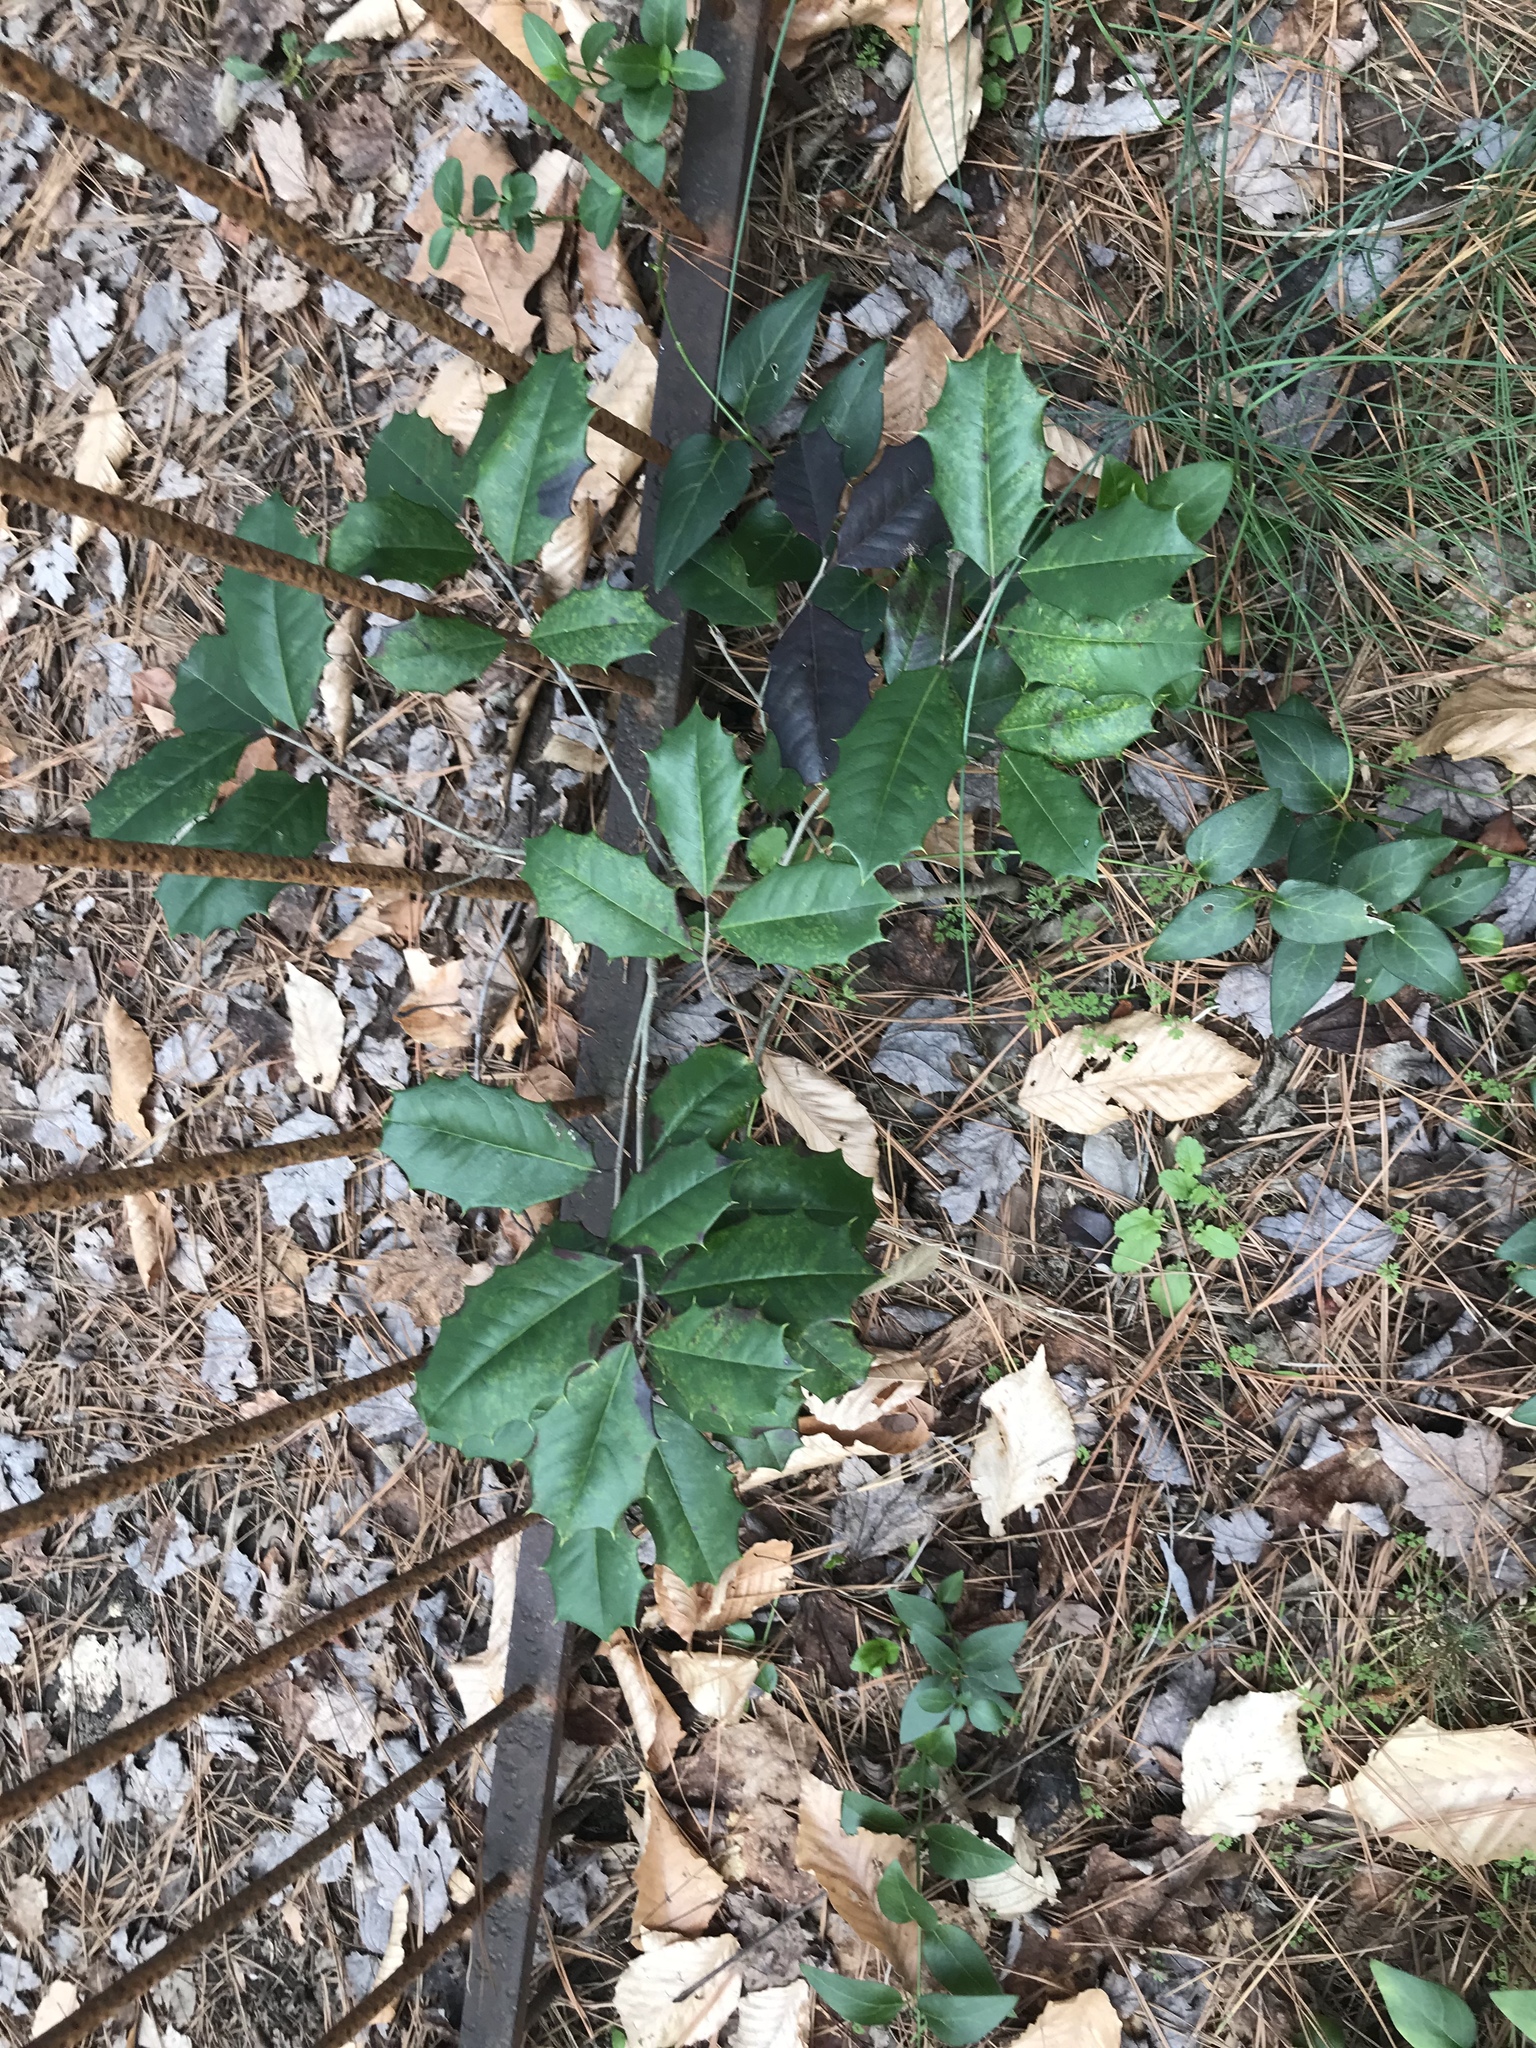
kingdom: Plantae
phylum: Tracheophyta
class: Magnoliopsida
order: Aquifoliales
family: Aquifoliaceae
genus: Ilex
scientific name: Ilex opaca
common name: American holly
